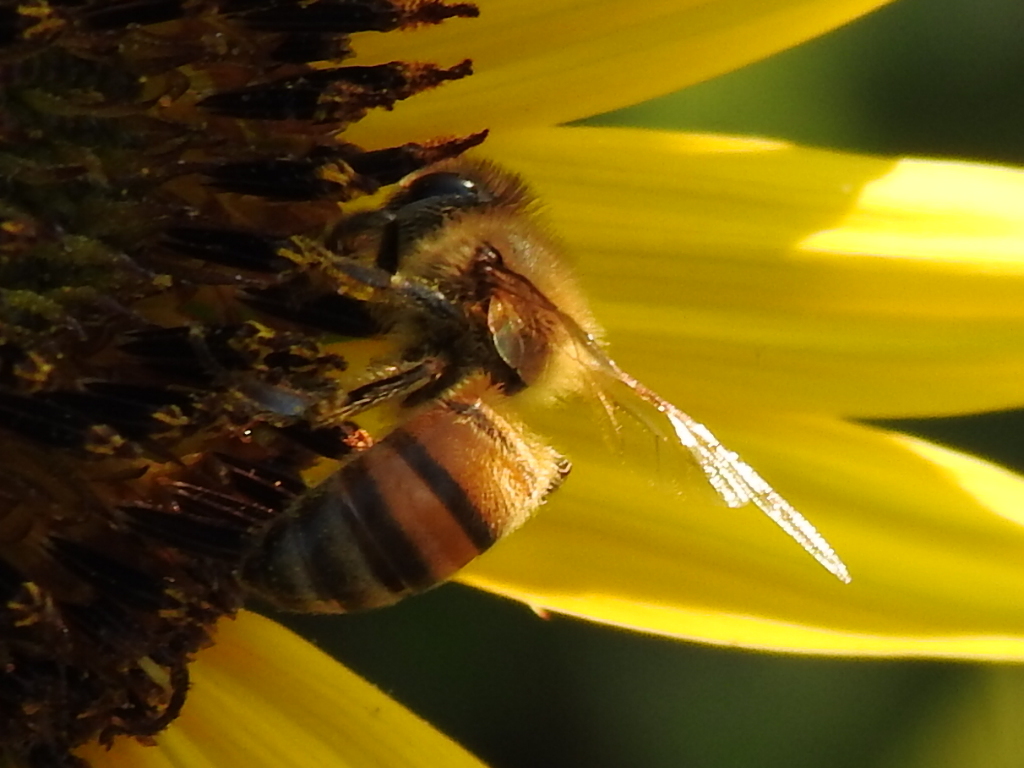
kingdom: Animalia
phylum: Arthropoda
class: Insecta
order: Hymenoptera
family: Apidae
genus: Apis
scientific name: Apis mellifera
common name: Honey bee
